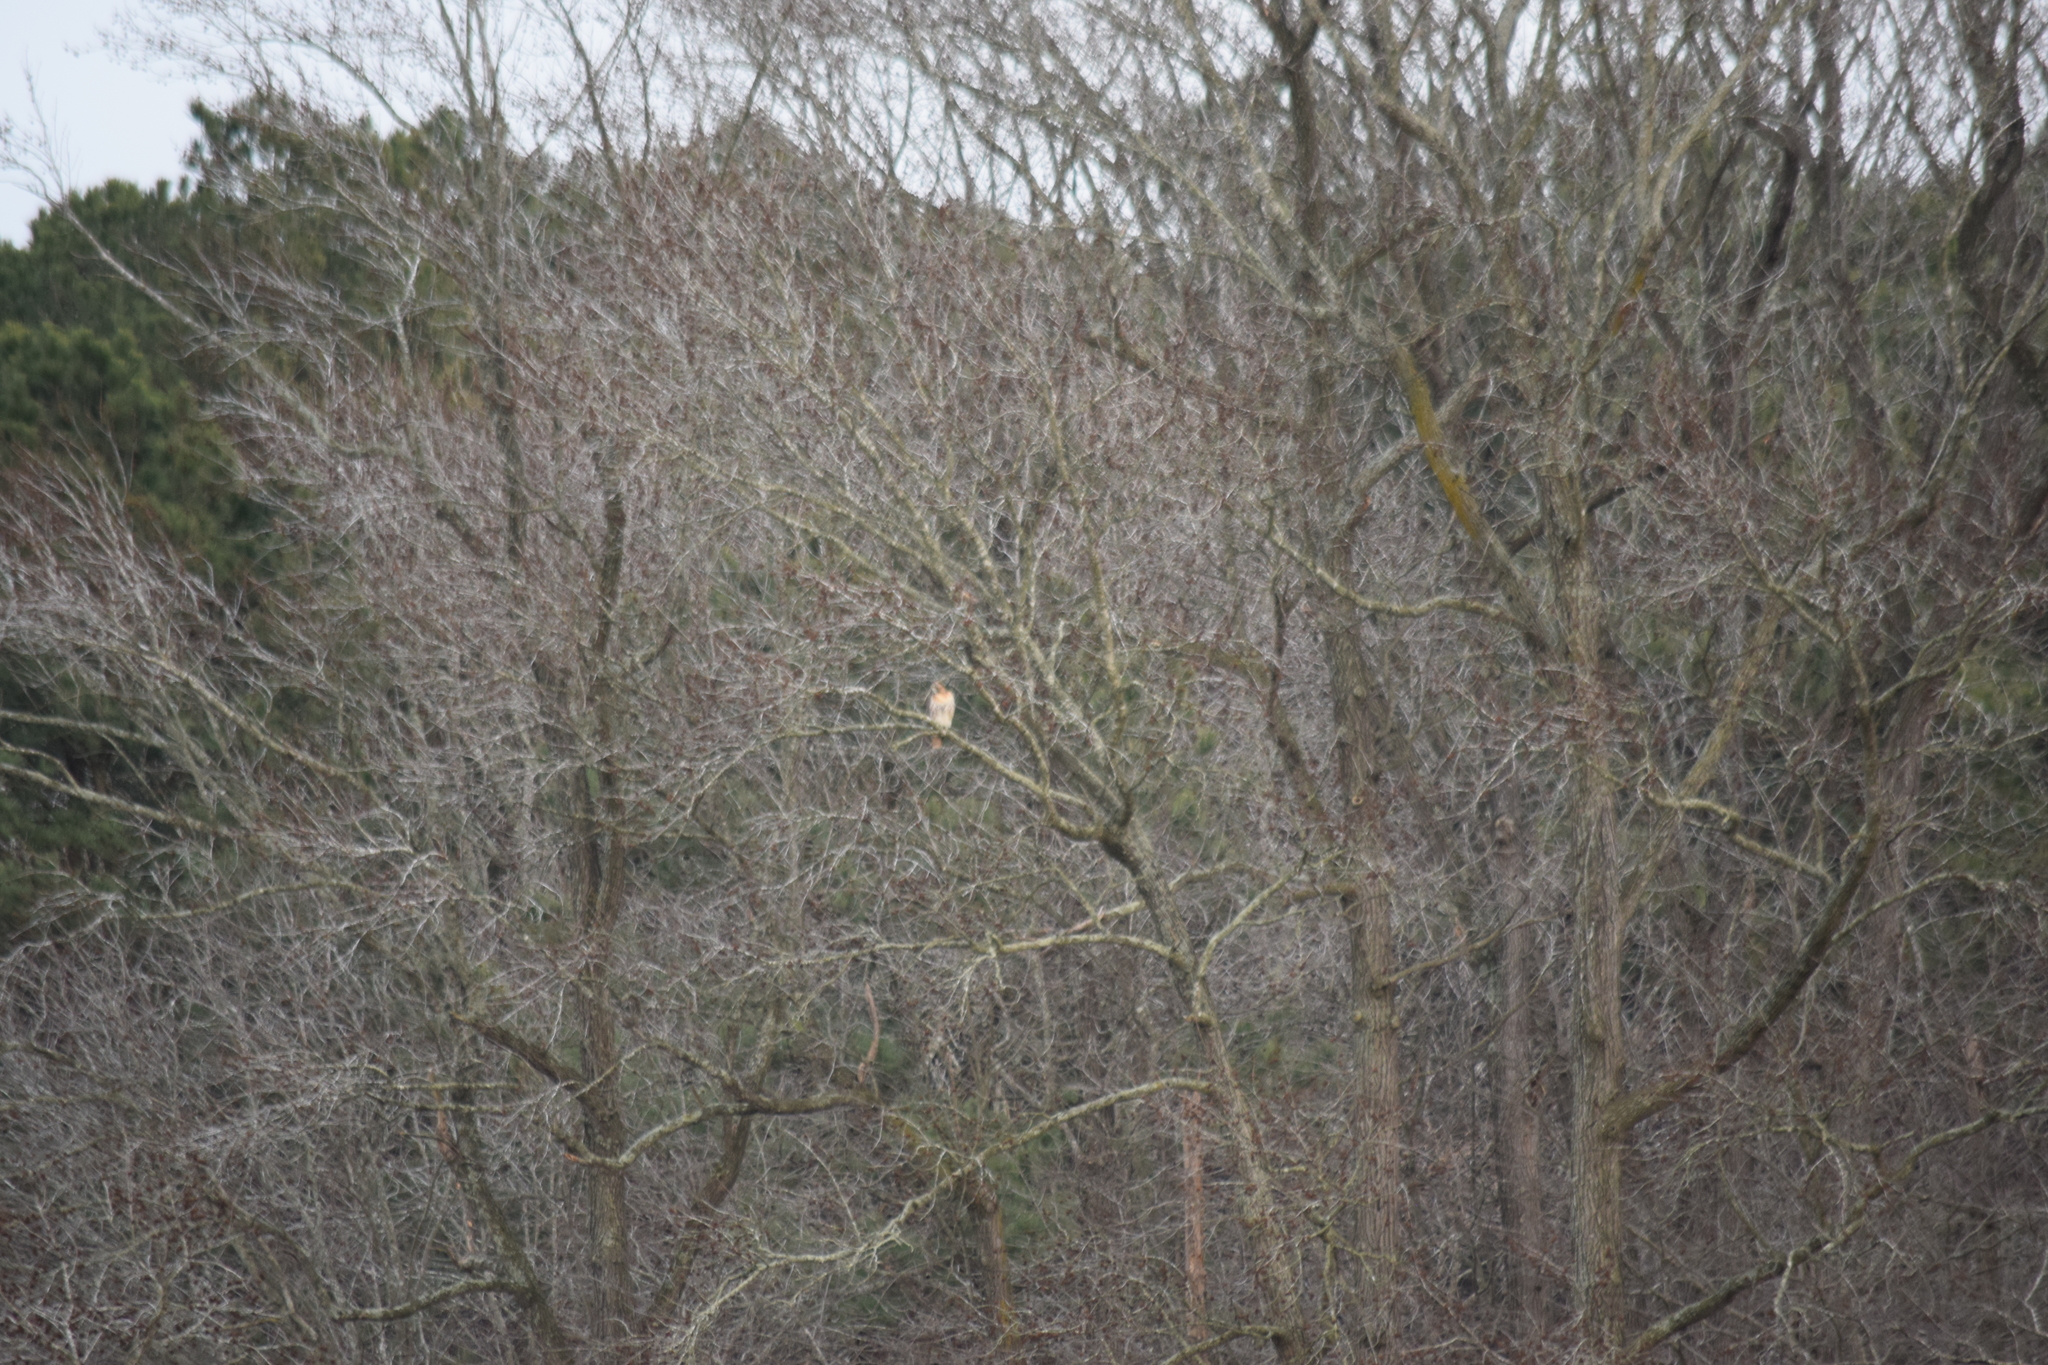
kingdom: Animalia
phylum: Chordata
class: Aves
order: Accipitriformes
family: Accipitridae
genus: Buteo
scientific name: Buteo jamaicensis
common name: Red-tailed hawk
